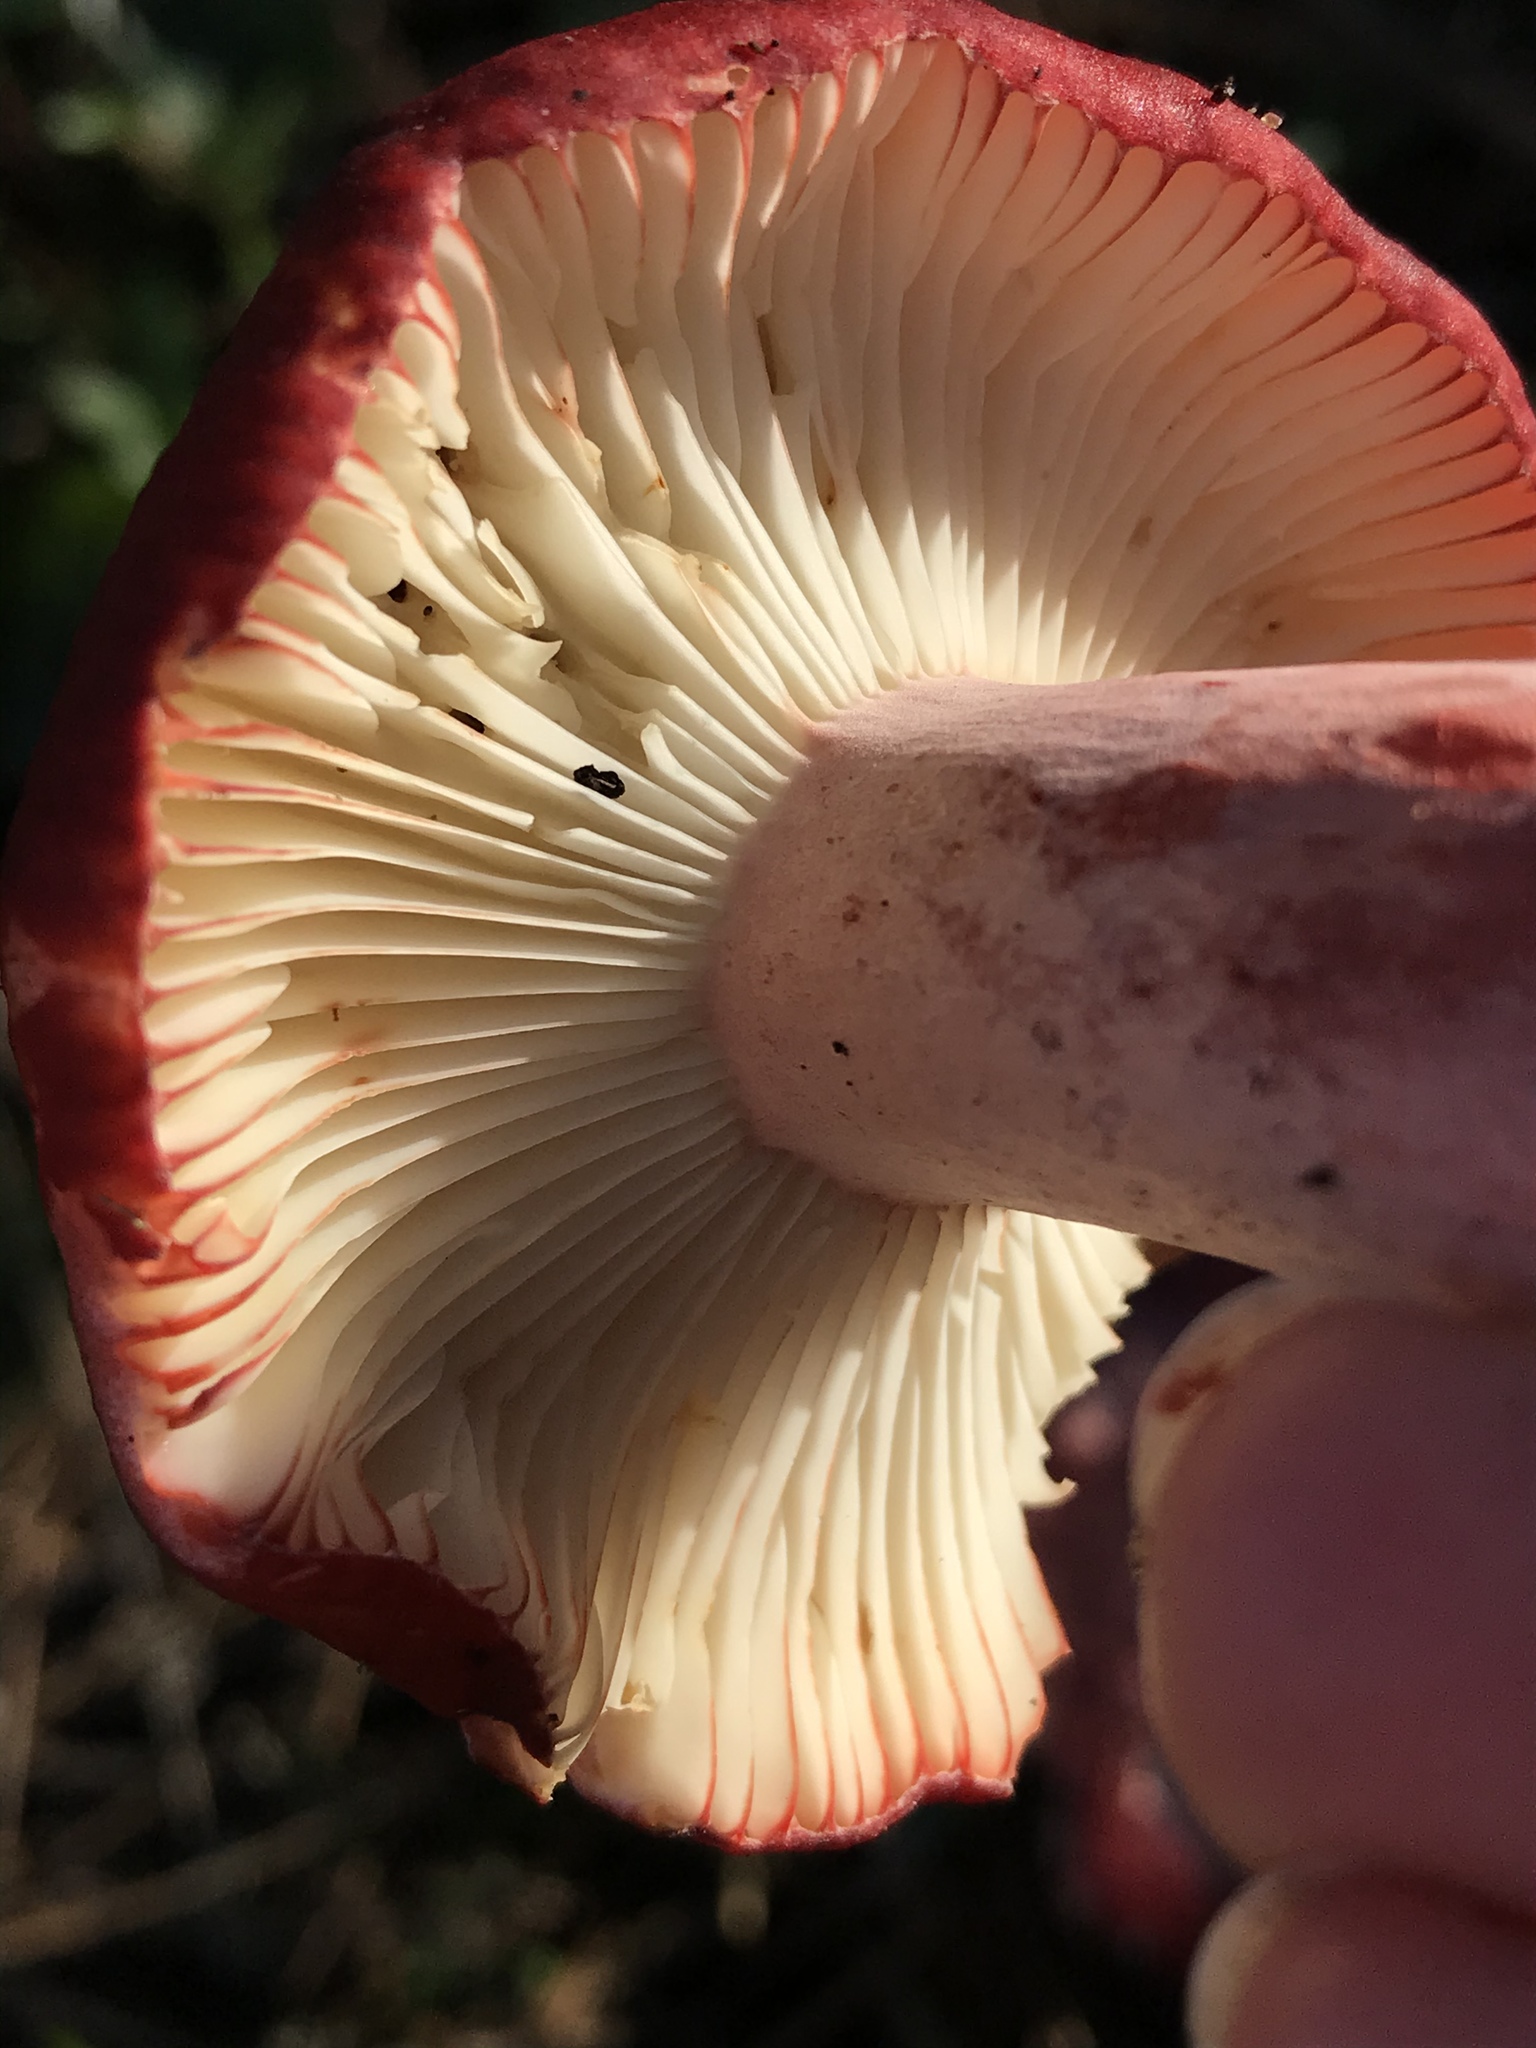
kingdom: Fungi
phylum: Basidiomycota
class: Agaricomycetes
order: Russulales
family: Russulaceae
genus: Russula
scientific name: Russula rhodocephala
